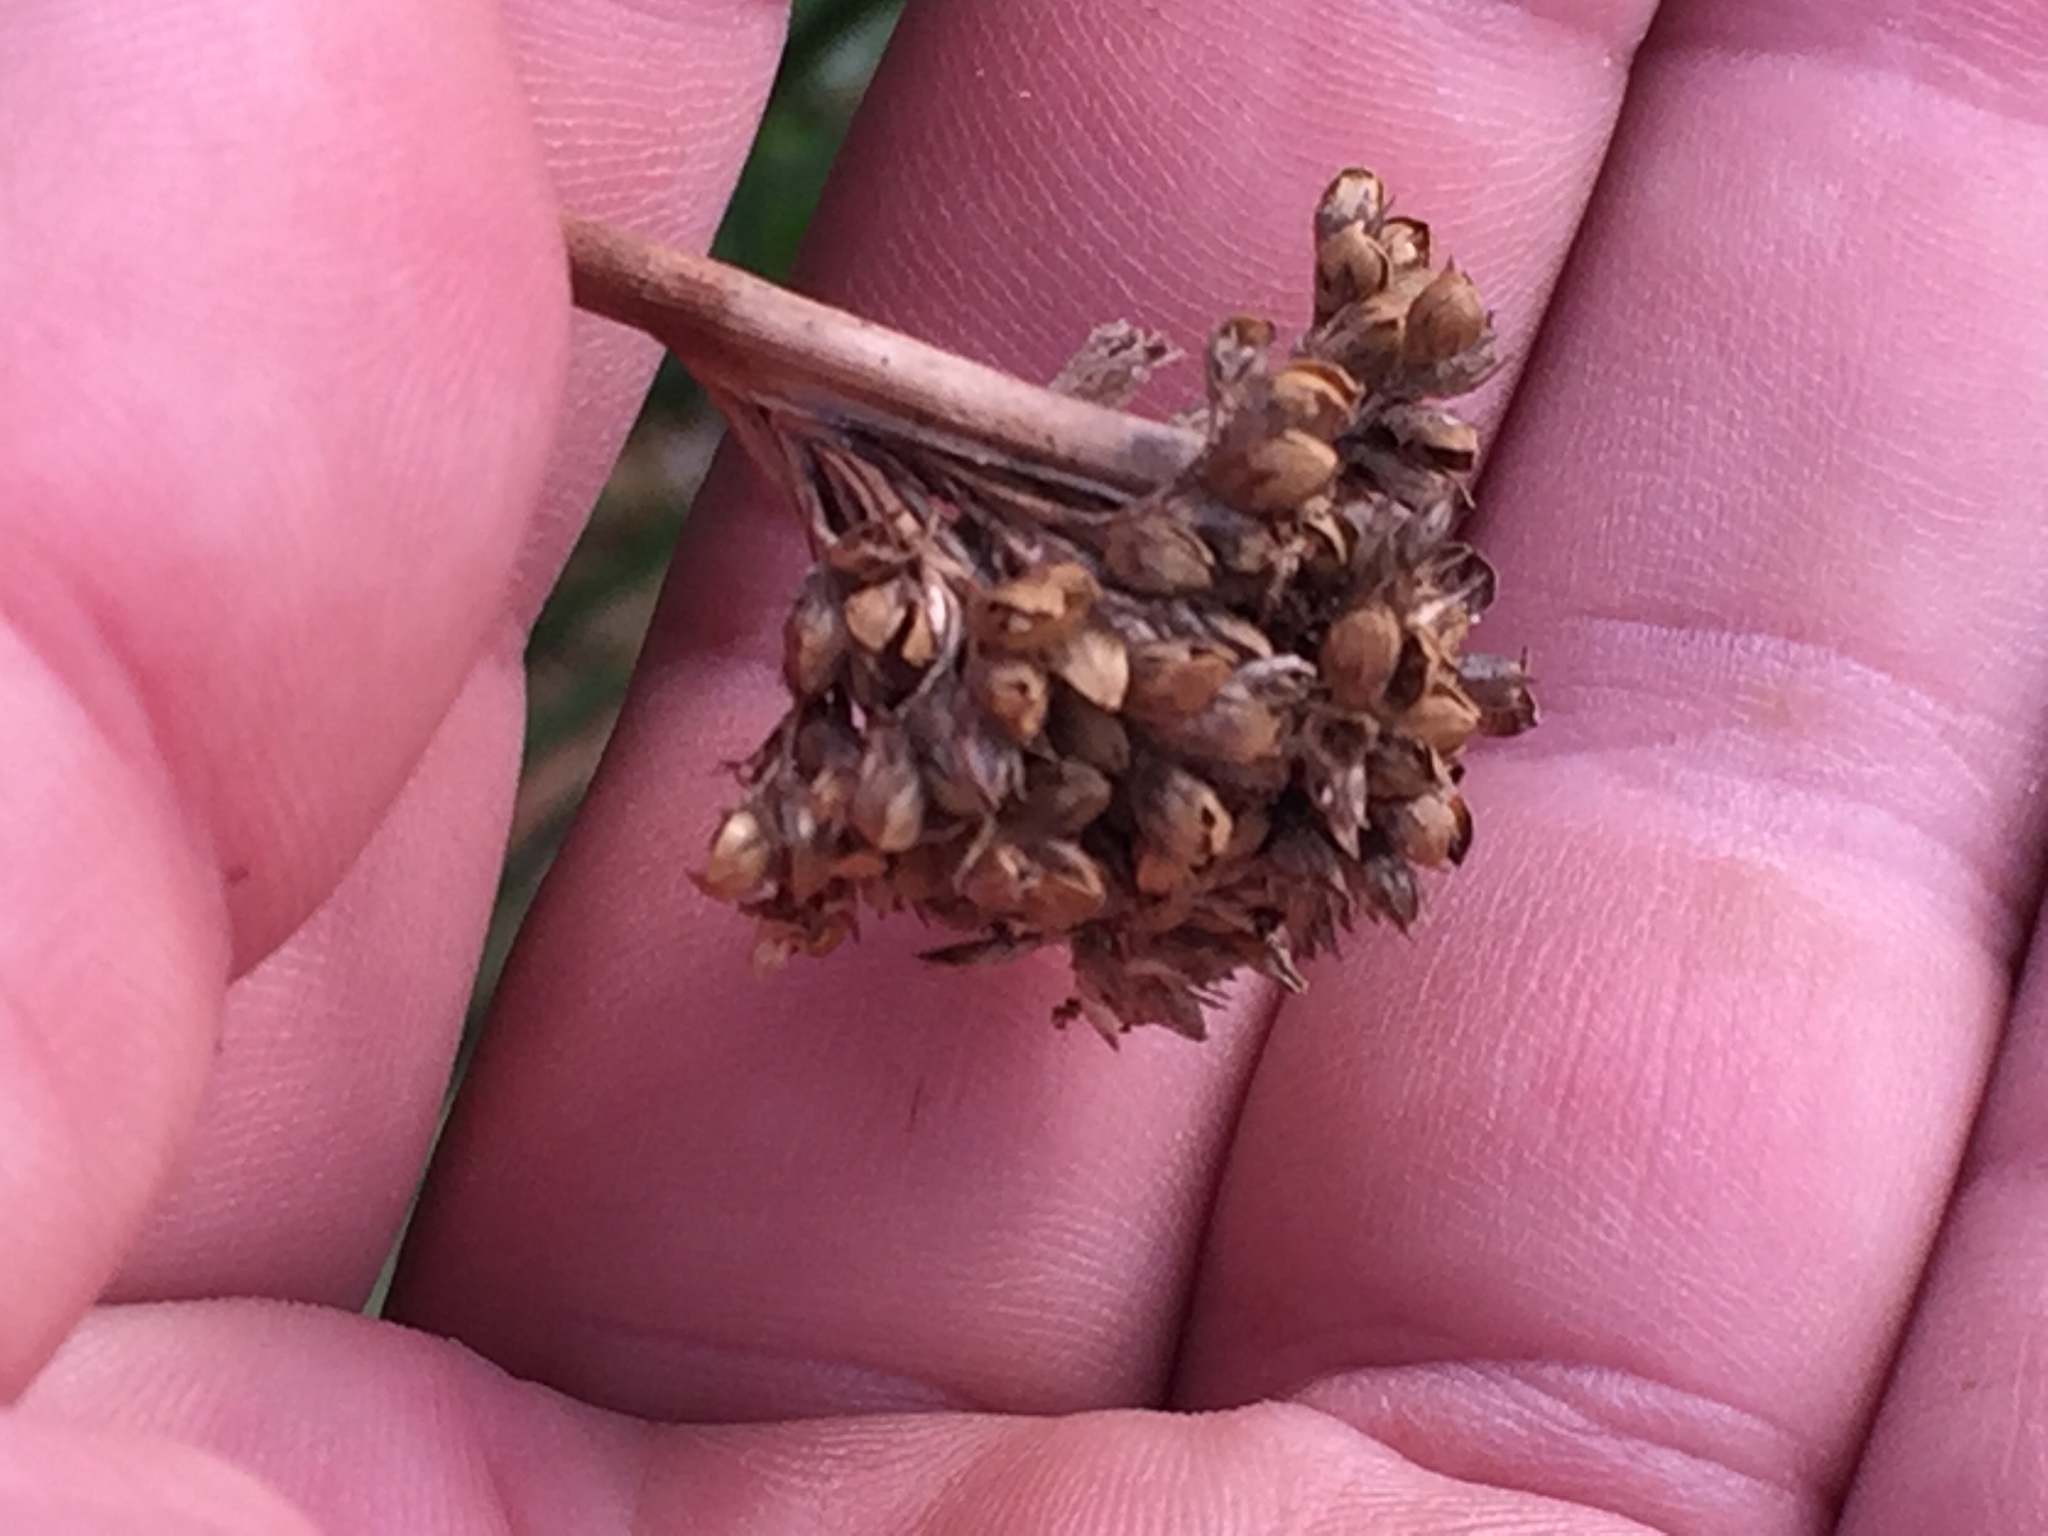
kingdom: Plantae
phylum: Tracheophyta
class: Liliopsida
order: Poales
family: Juncaceae
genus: Juncus
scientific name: Juncus acutus
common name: Sharp rush
